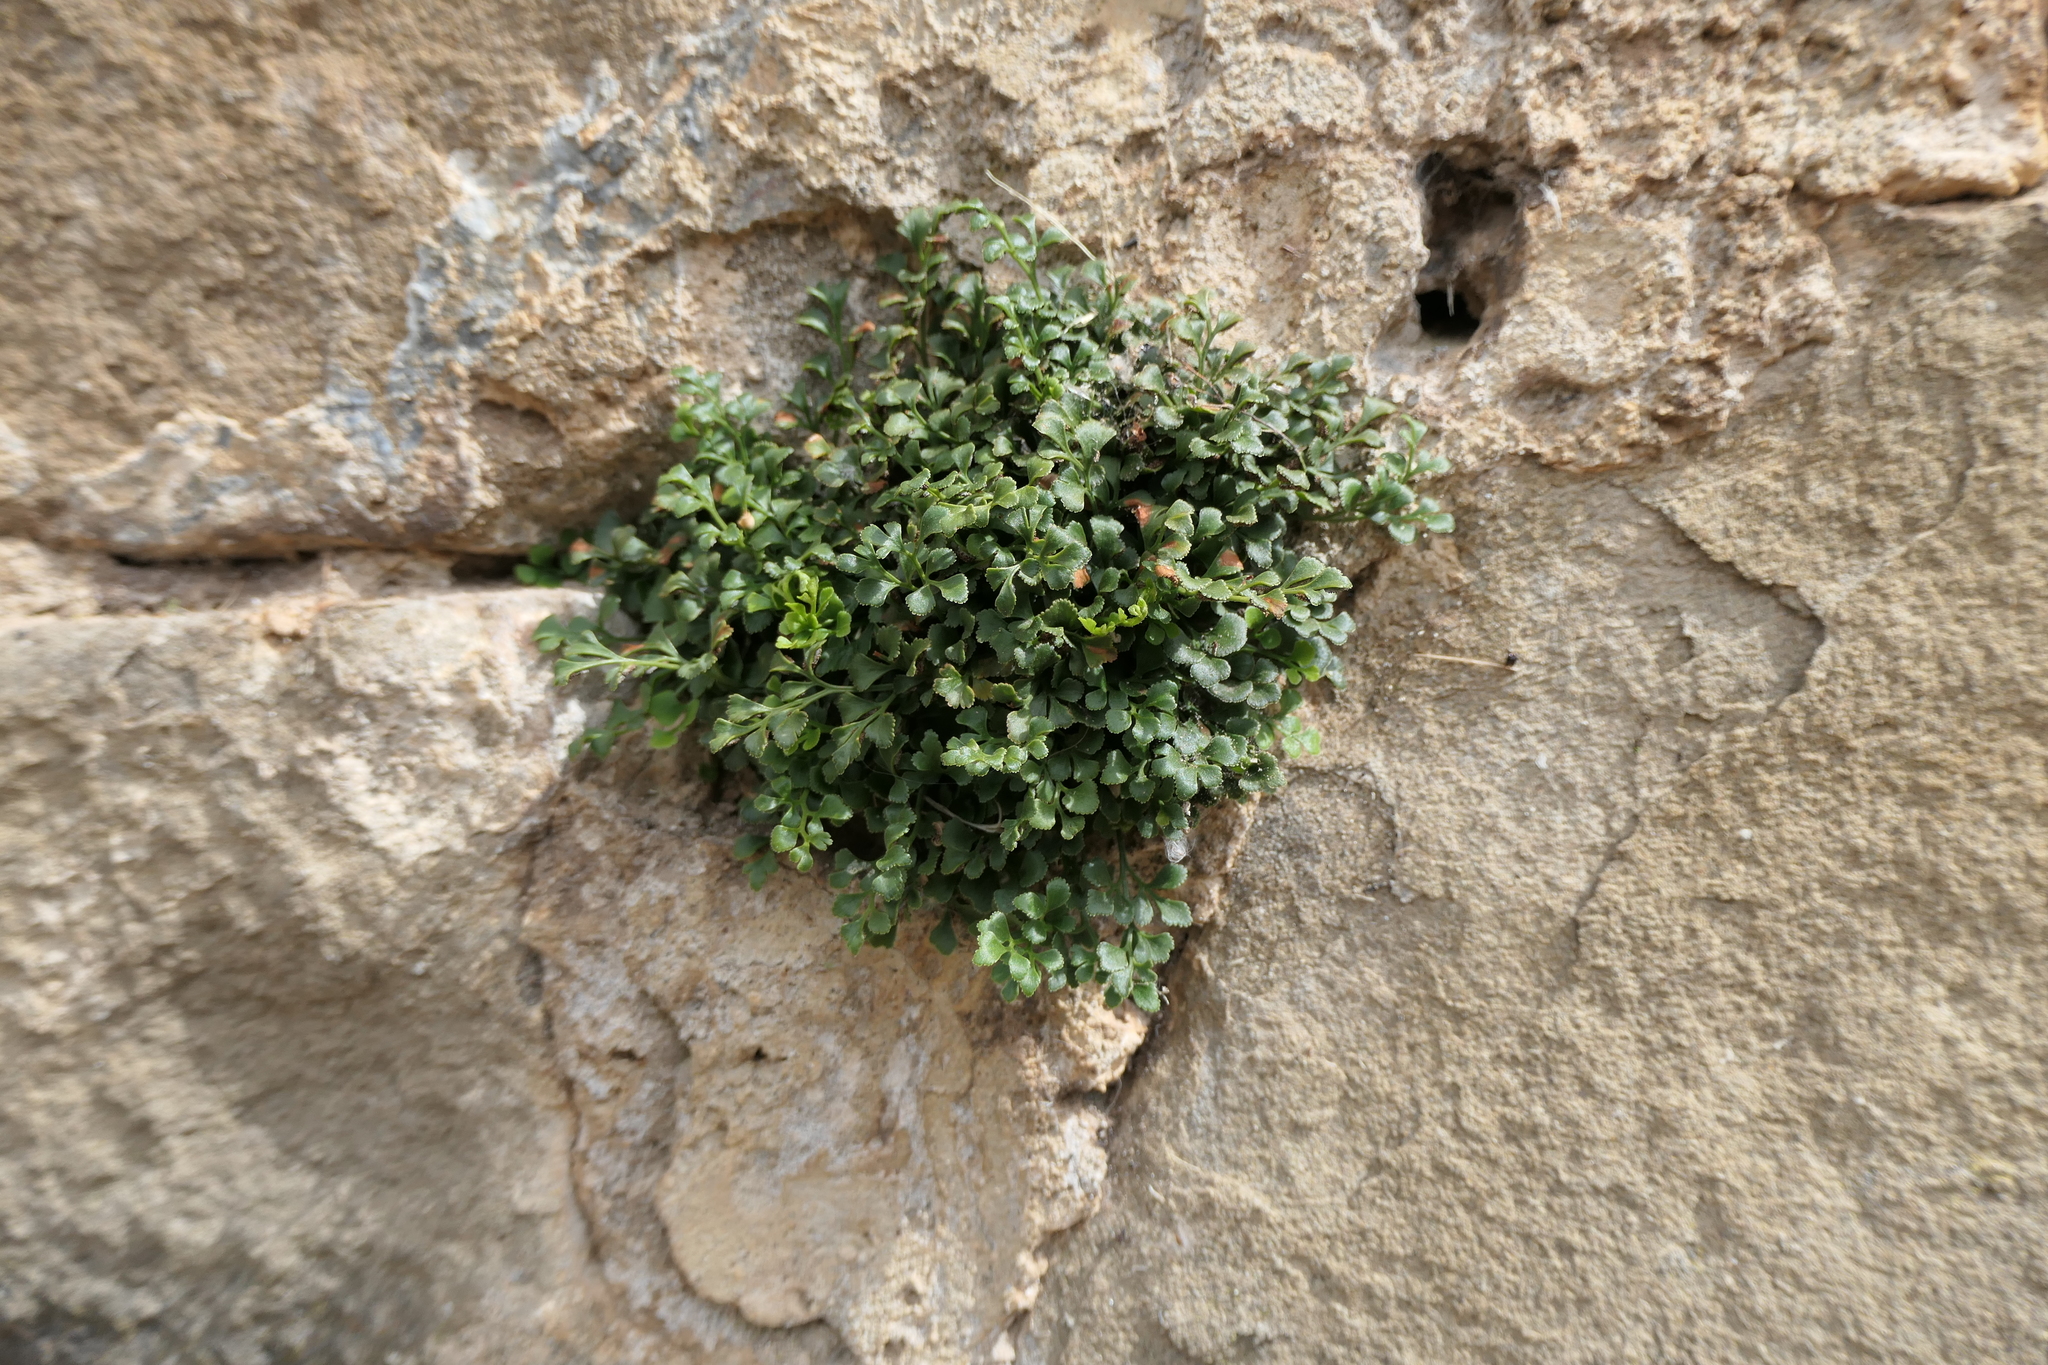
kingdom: Plantae
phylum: Tracheophyta
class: Polypodiopsida
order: Polypodiales
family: Aspleniaceae
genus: Asplenium
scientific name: Asplenium ruta-muraria
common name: Wall-rue
